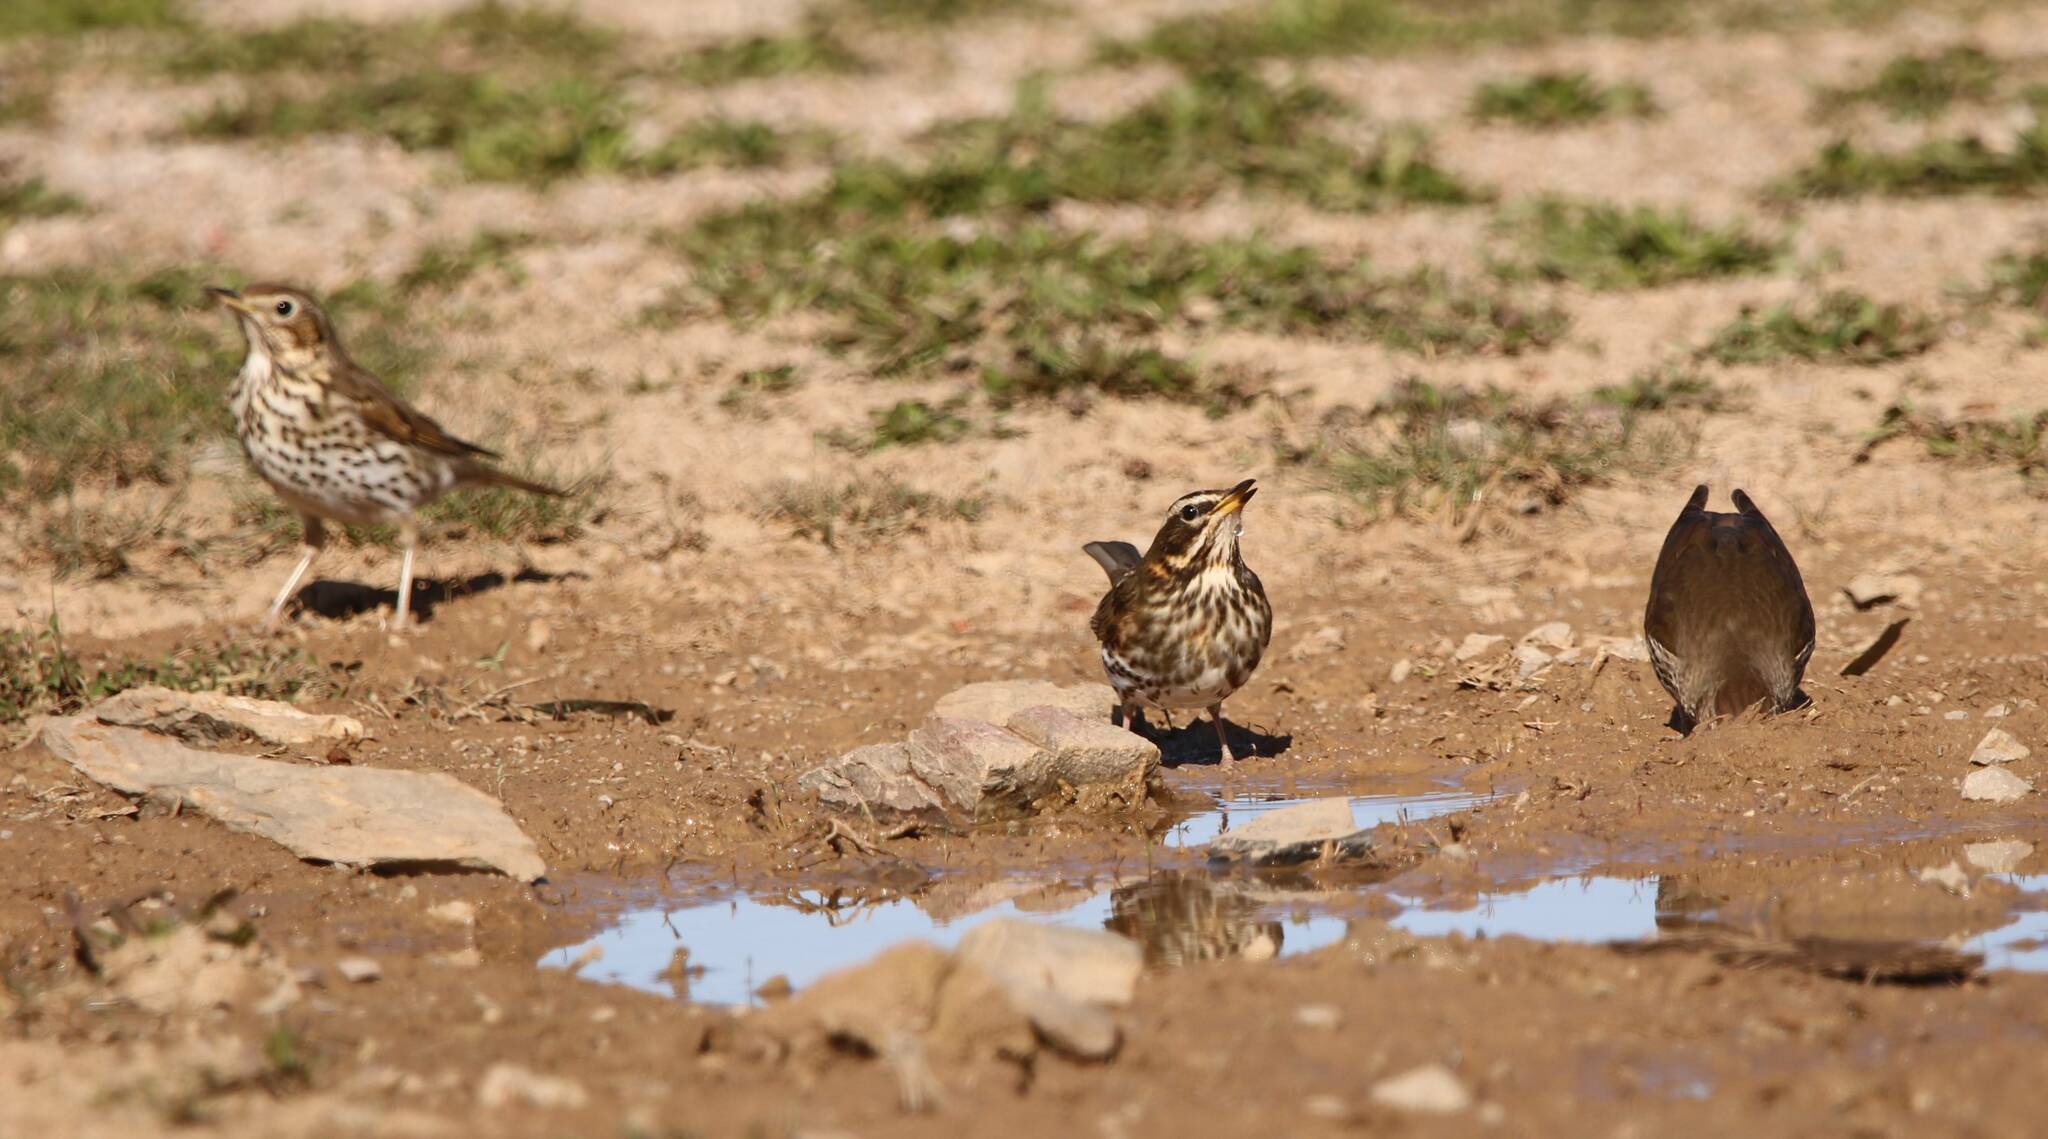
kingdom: Animalia
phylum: Chordata
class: Aves
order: Passeriformes
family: Turdidae
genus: Turdus
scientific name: Turdus philomelos
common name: Song thrush
